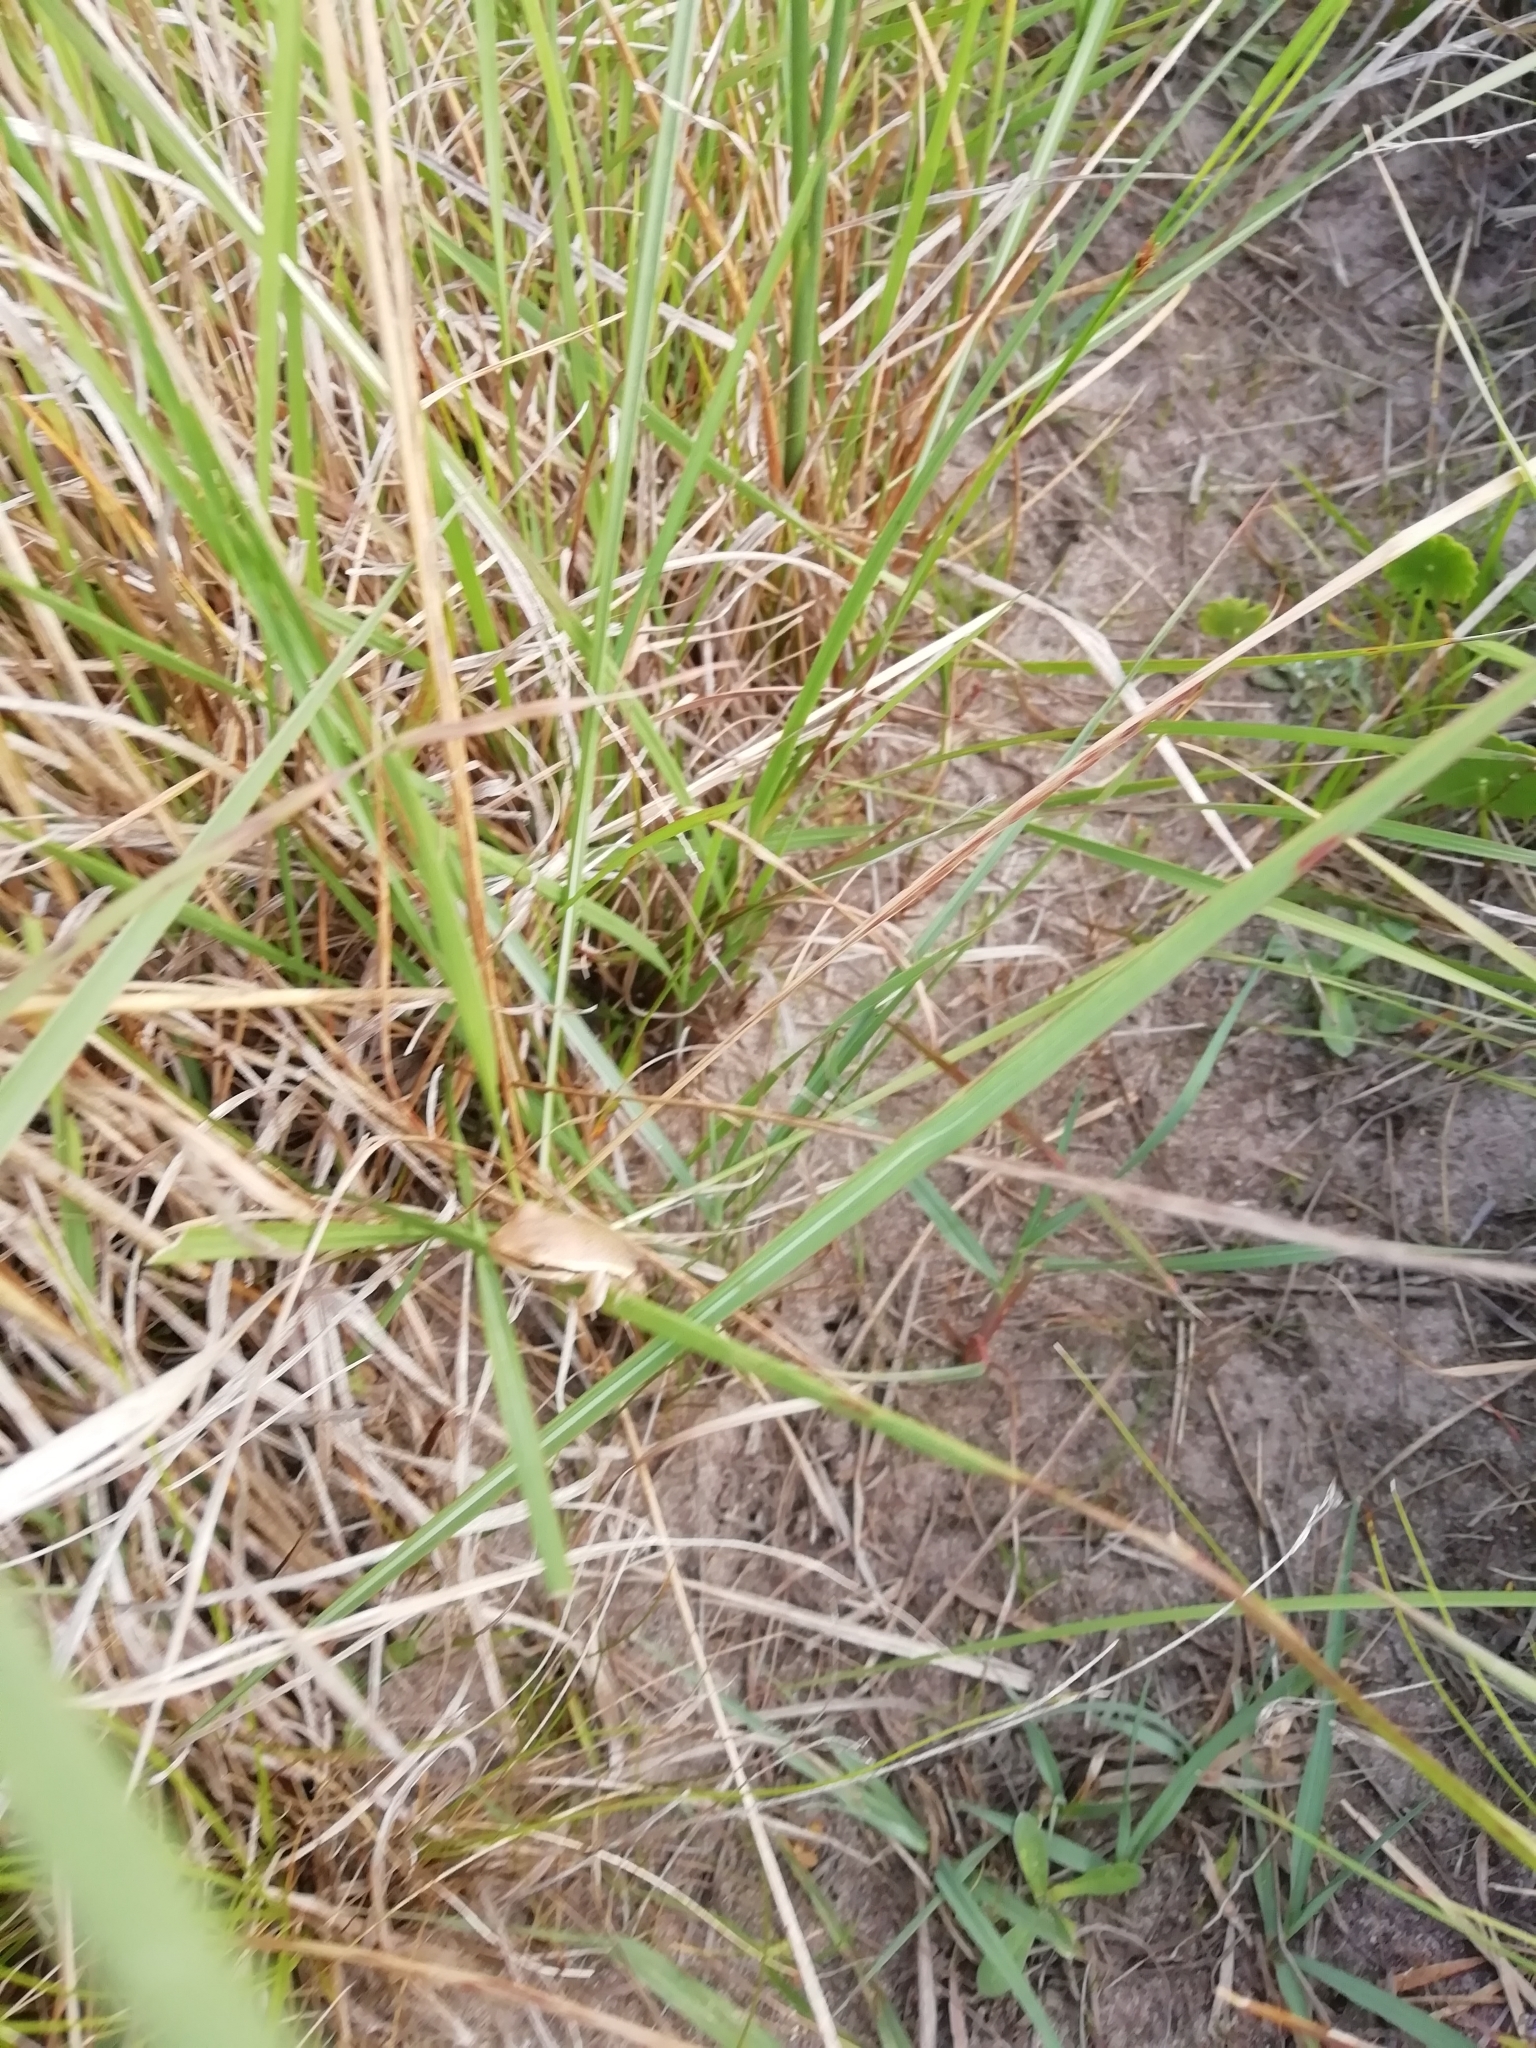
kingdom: Animalia
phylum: Chordata
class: Amphibia
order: Anura
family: Hylidae
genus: Boana
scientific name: Boana pulchella
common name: Montevideo treefrog
